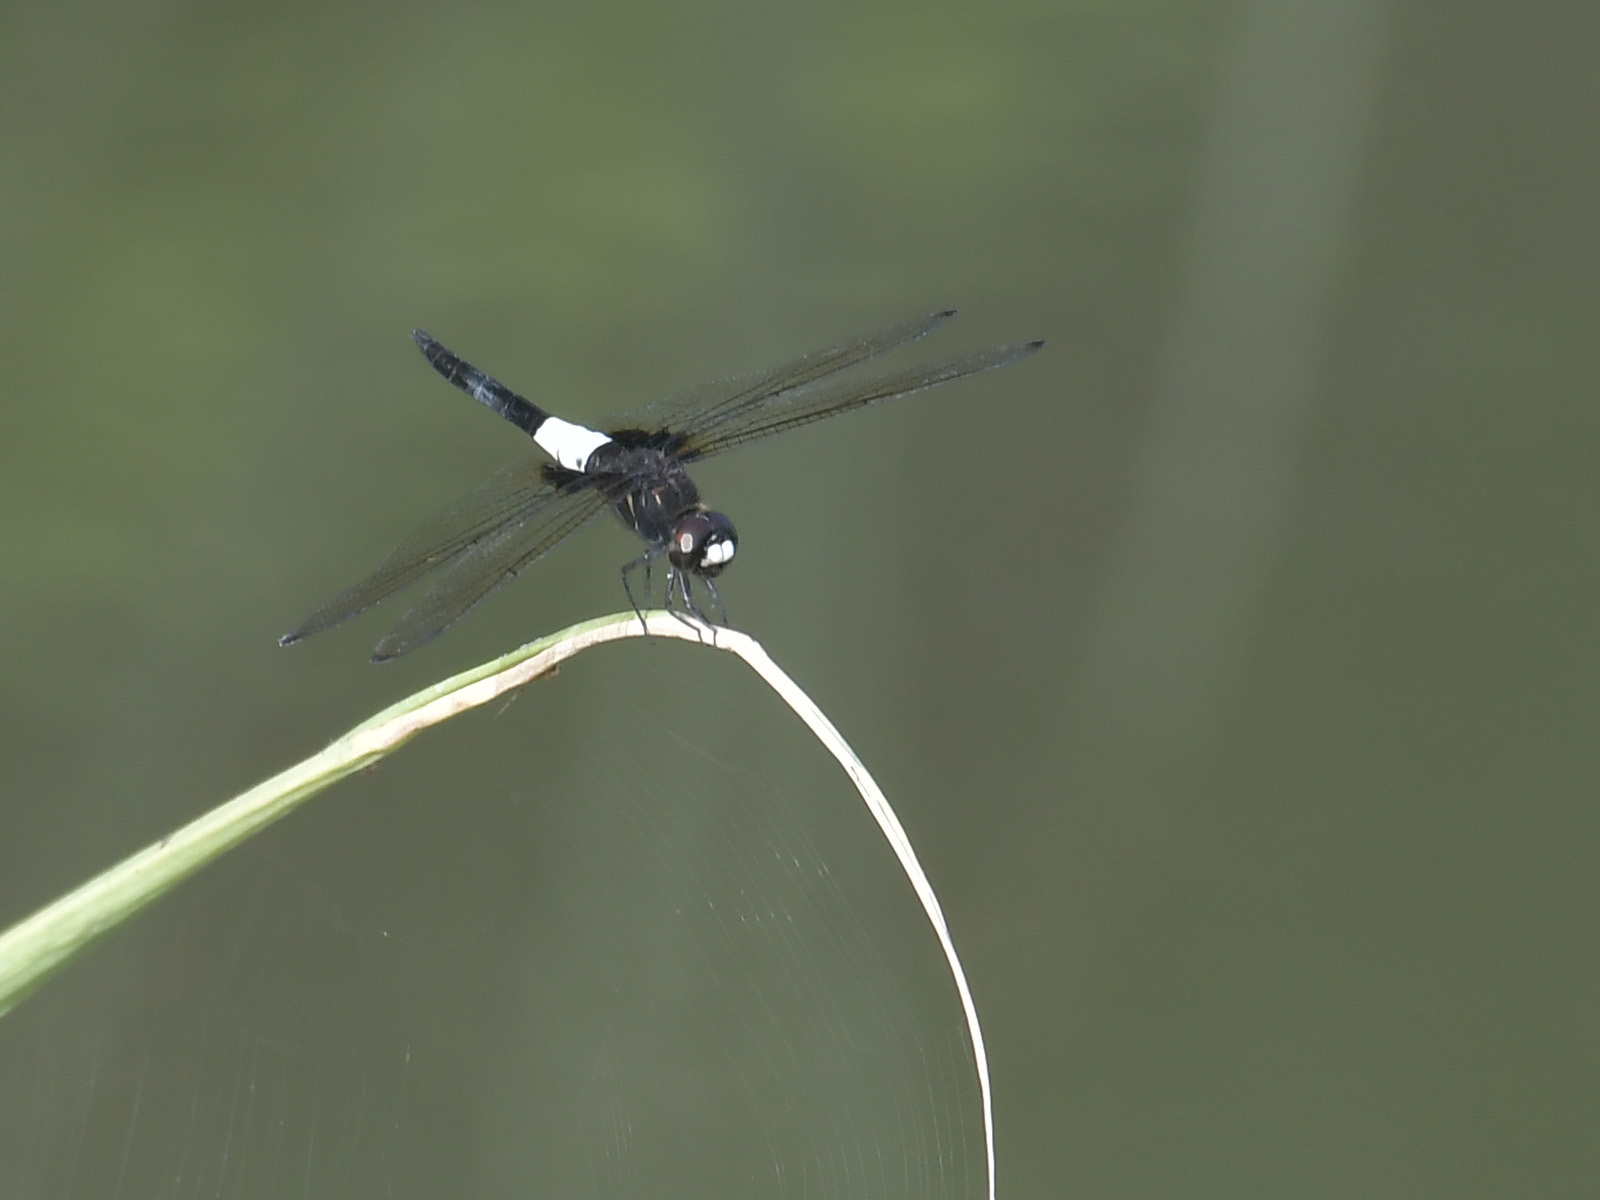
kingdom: Animalia
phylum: Arthropoda
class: Insecta
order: Odonata
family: Libellulidae
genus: Pseudothemis
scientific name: Pseudothemis zonata
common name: Pied skimmer
